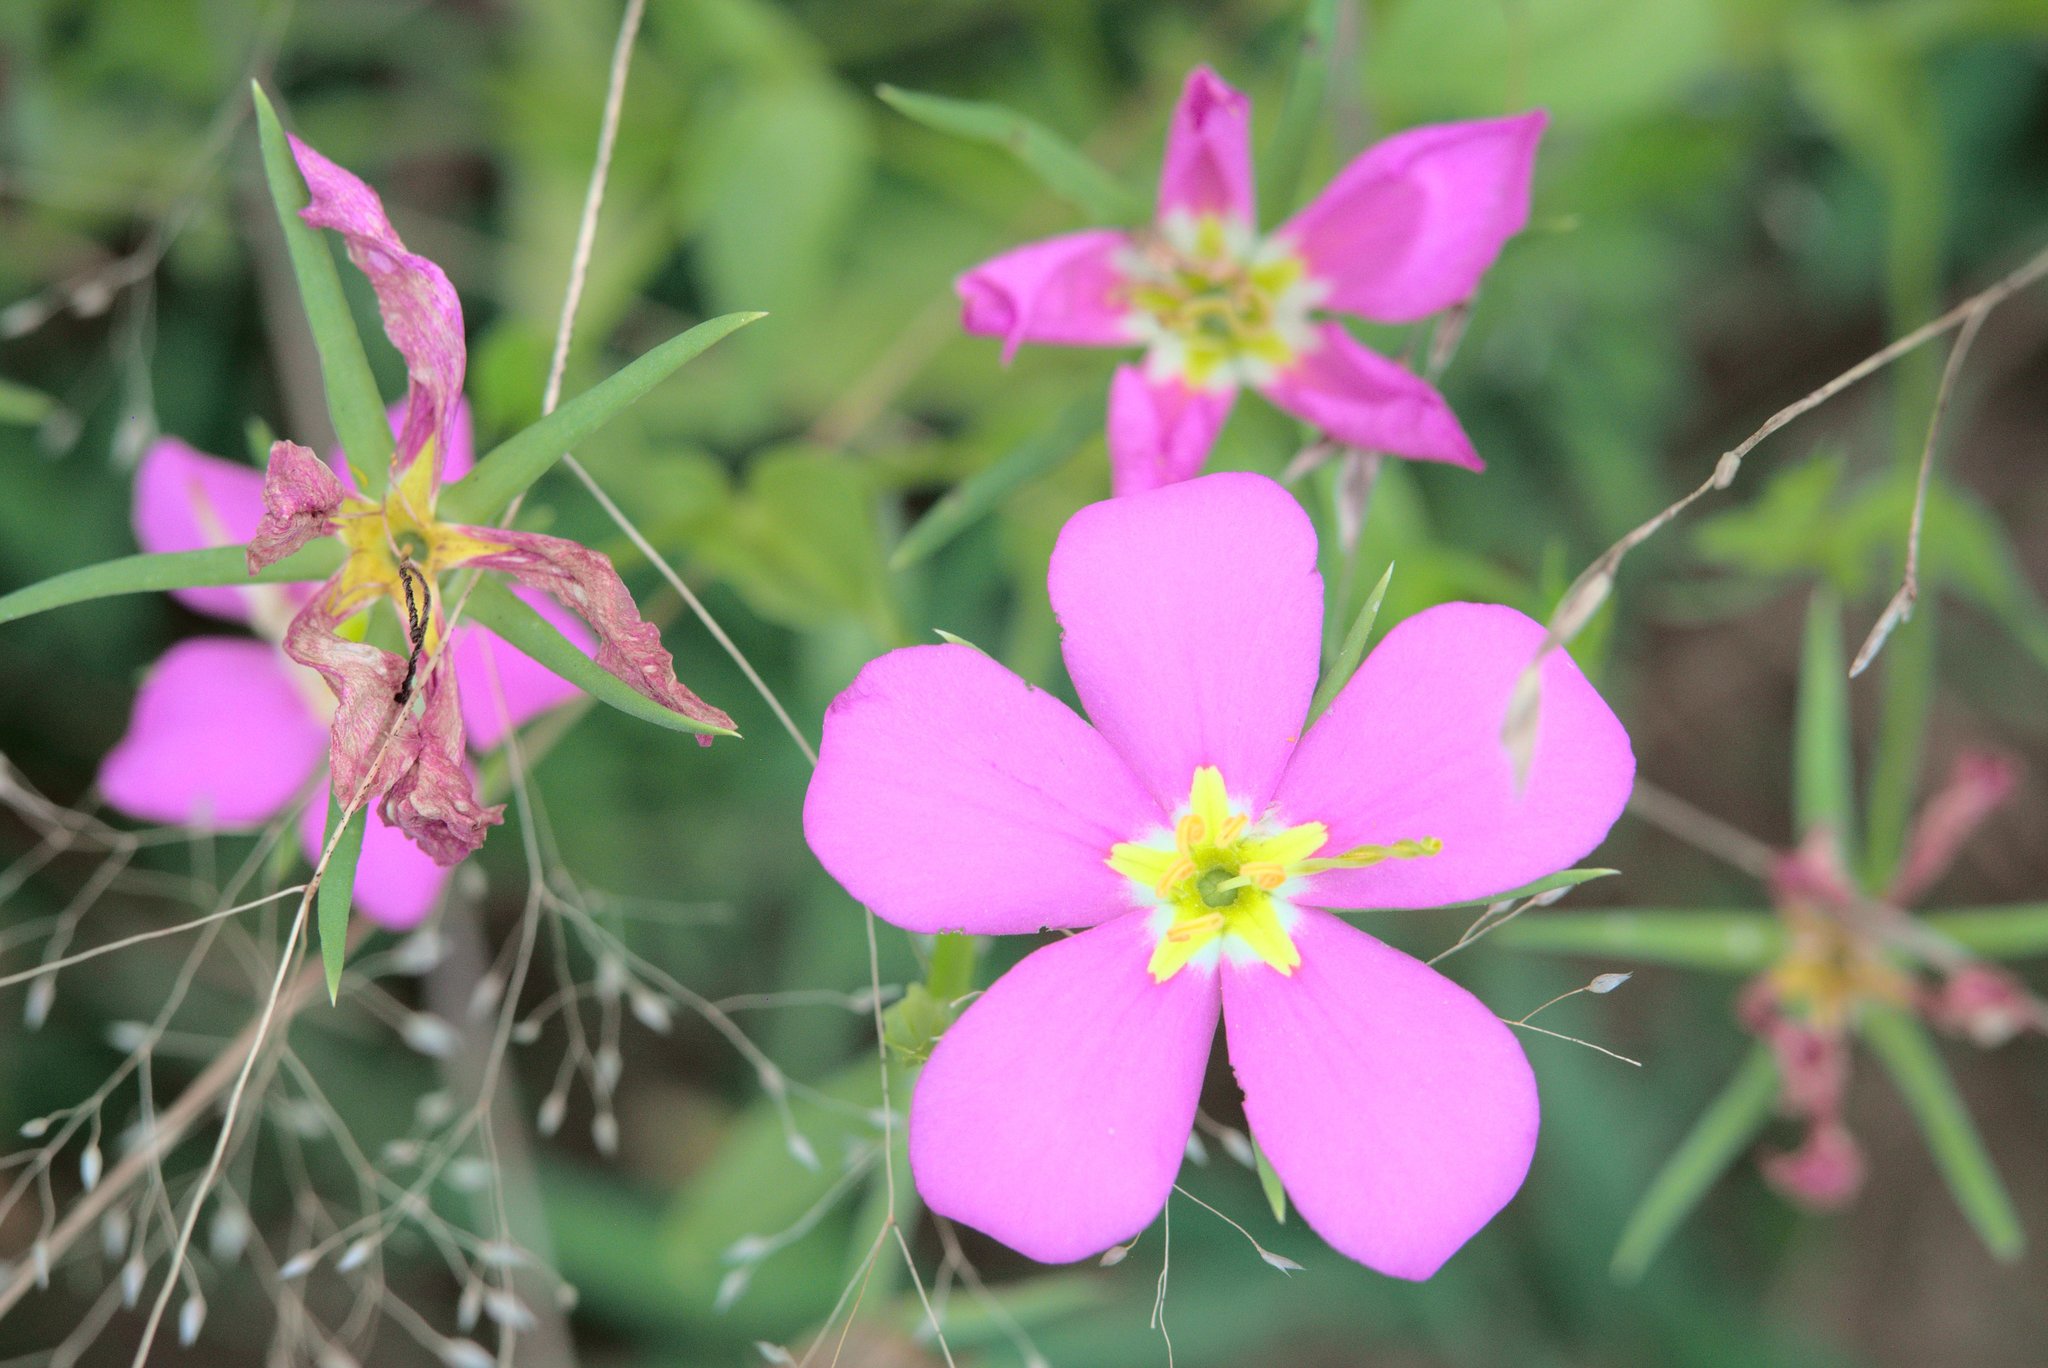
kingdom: Plantae
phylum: Tracheophyta
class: Magnoliopsida
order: Gentianales
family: Gentianaceae
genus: Sabatia
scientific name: Sabatia campestris
